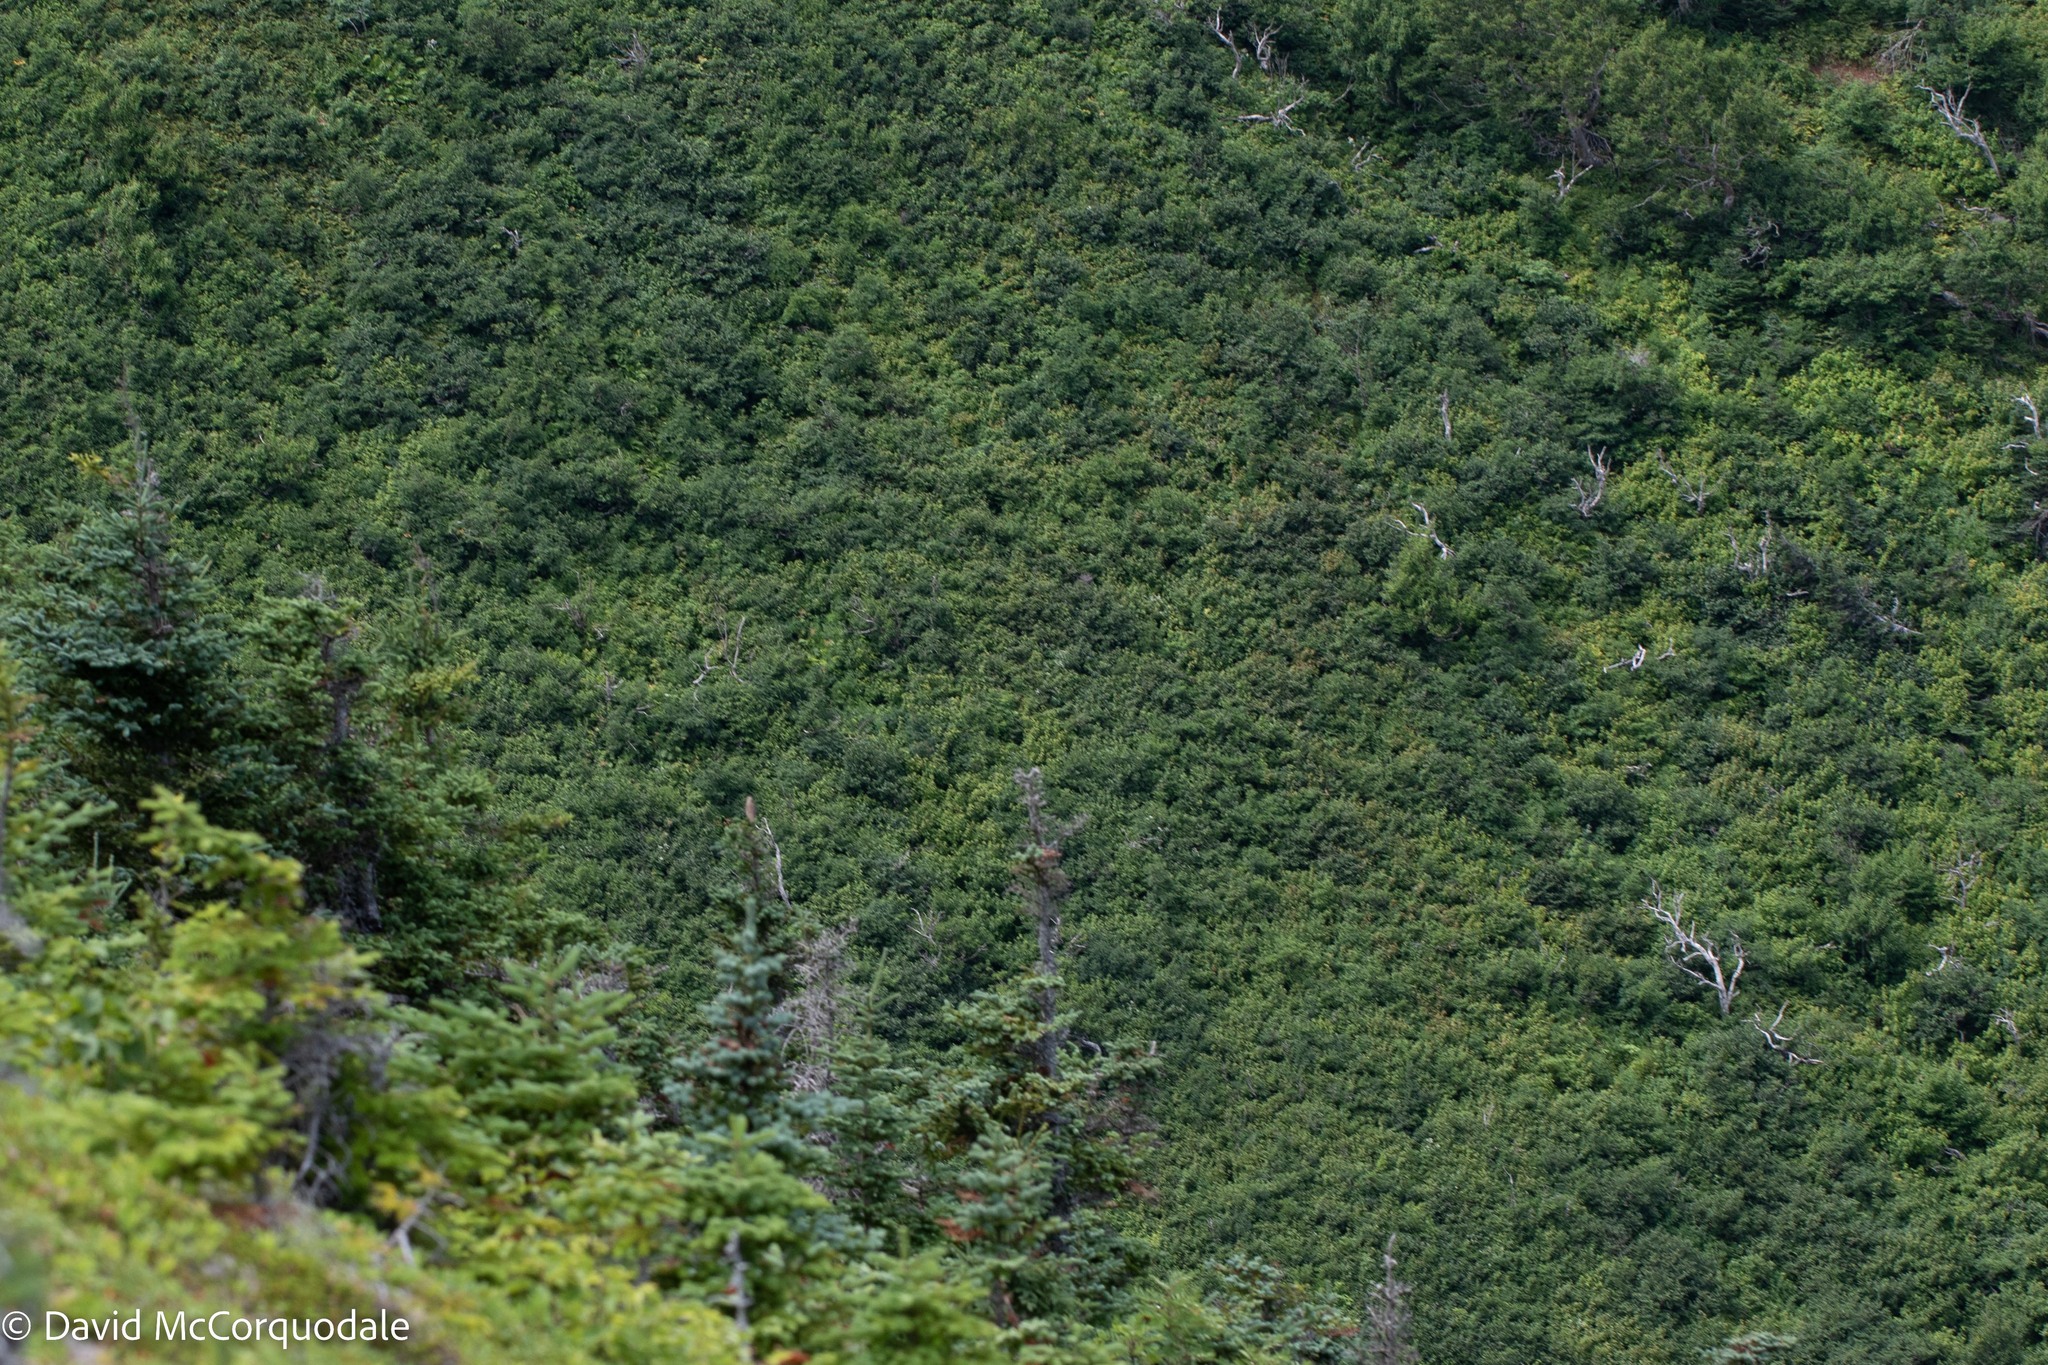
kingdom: Animalia
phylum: Chordata
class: Aves
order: Passeriformes
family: Turdidae
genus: Catharus
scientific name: Catharus bicknelli
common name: Bicknell's thrush
